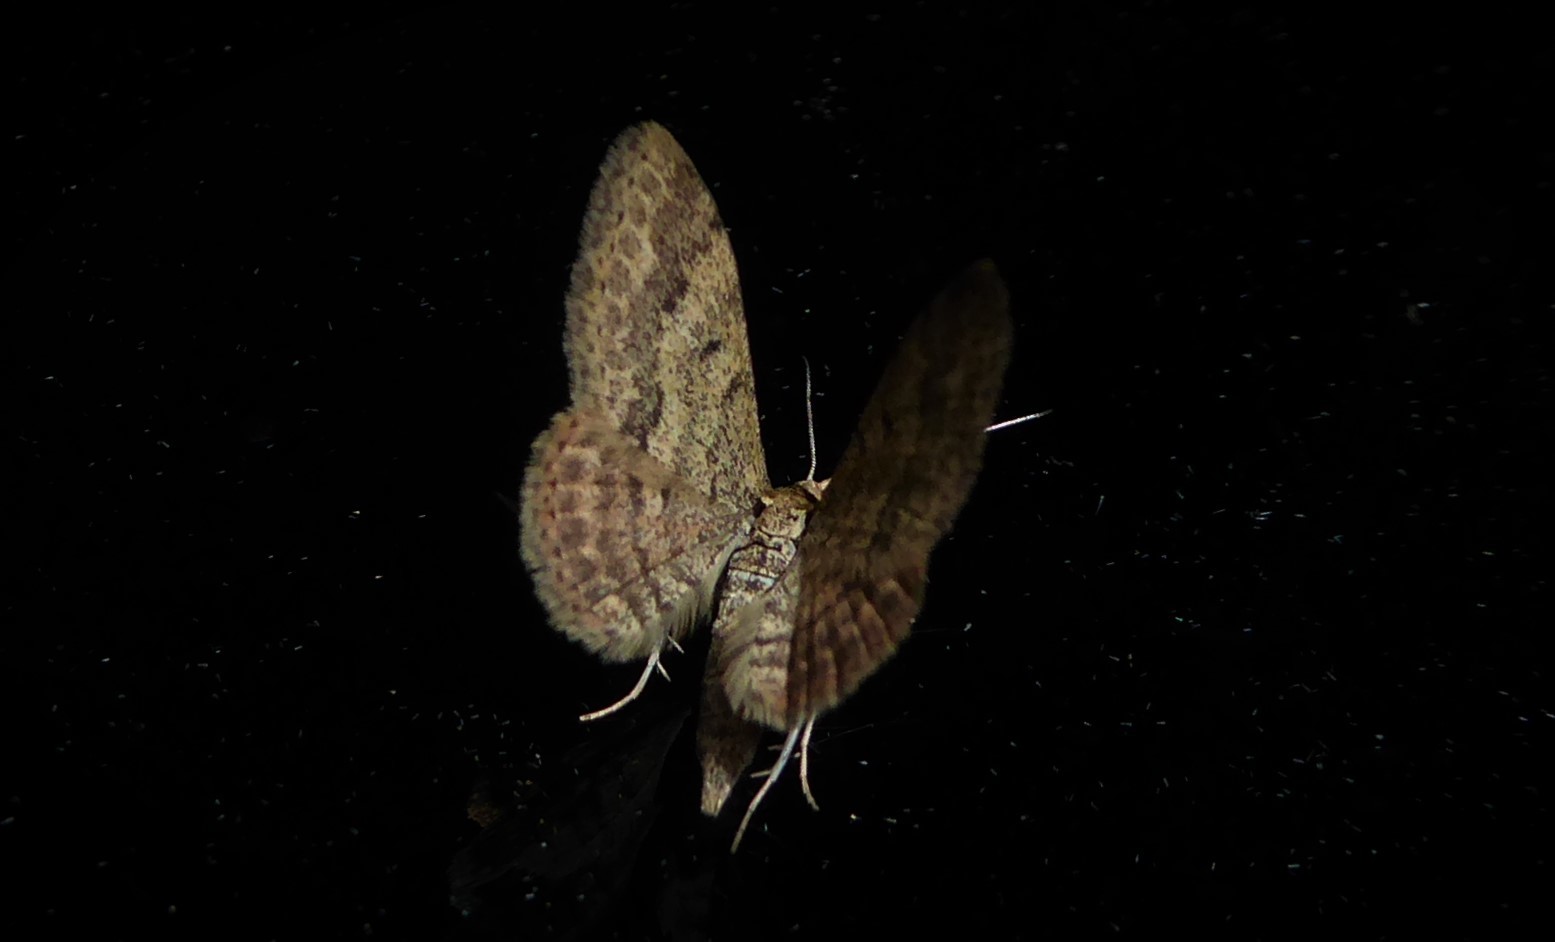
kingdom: Animalia
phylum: Arthropoda
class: Insecta
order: Lepidoptera
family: Geometridae
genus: Scopula
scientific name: Scopula rubraria
